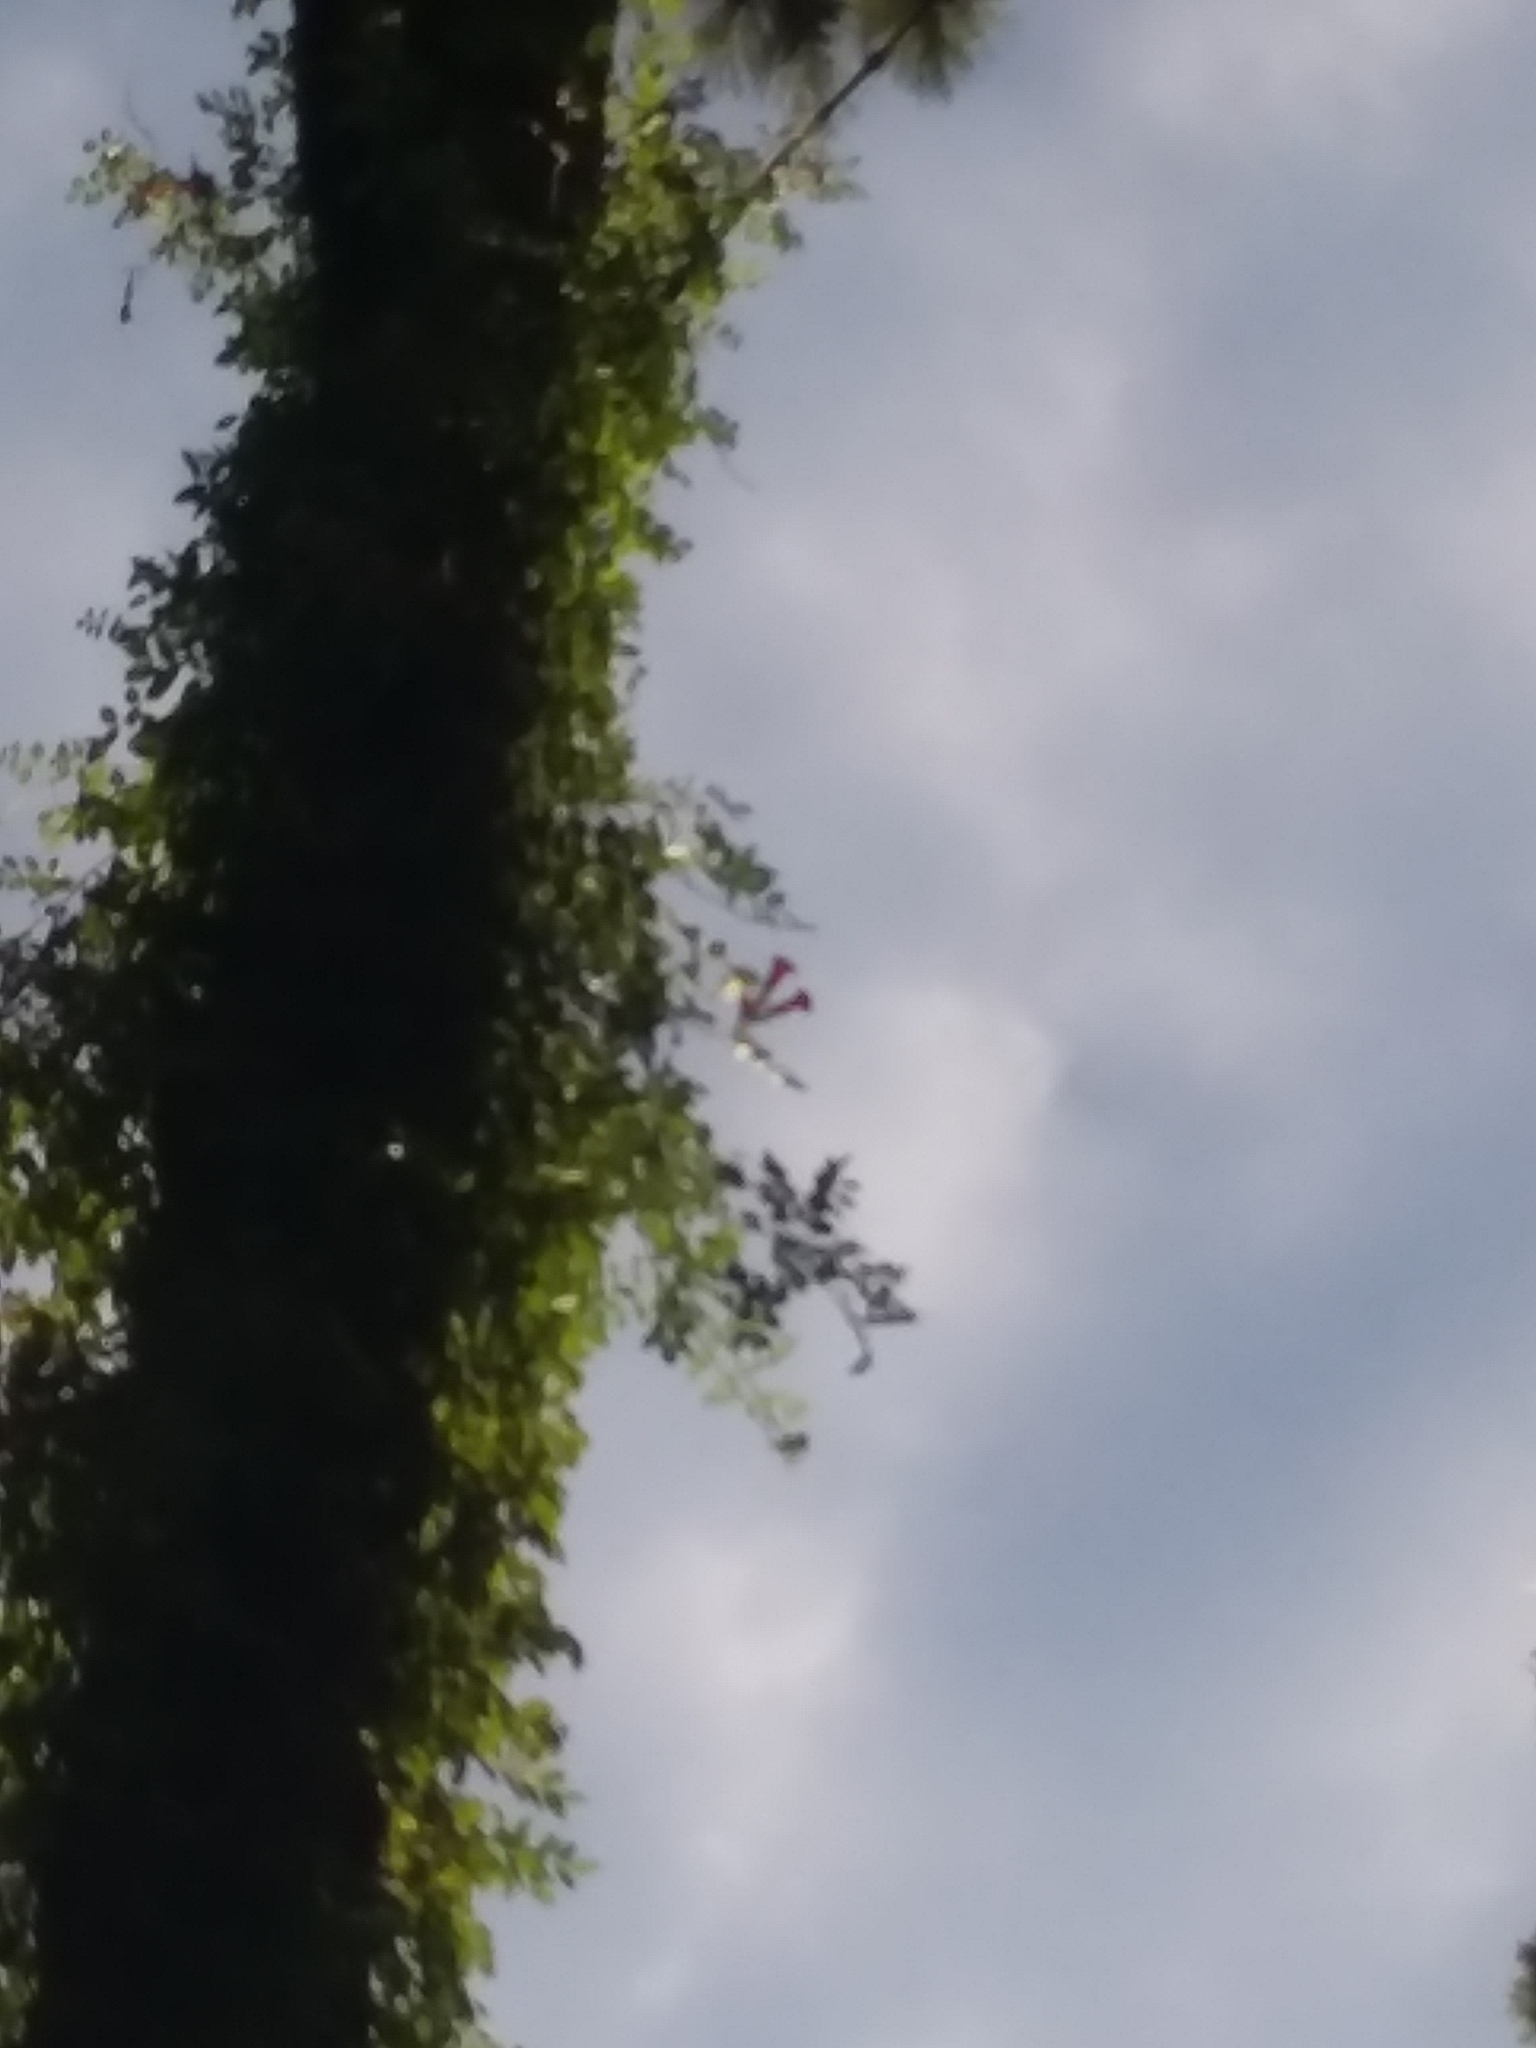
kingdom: Plantae
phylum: Tracheophyta
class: Magnoliopsida
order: Lamiales
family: Bignoniaceae
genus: Campsis
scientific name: Campsis radicans
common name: Trumpet-creeper
